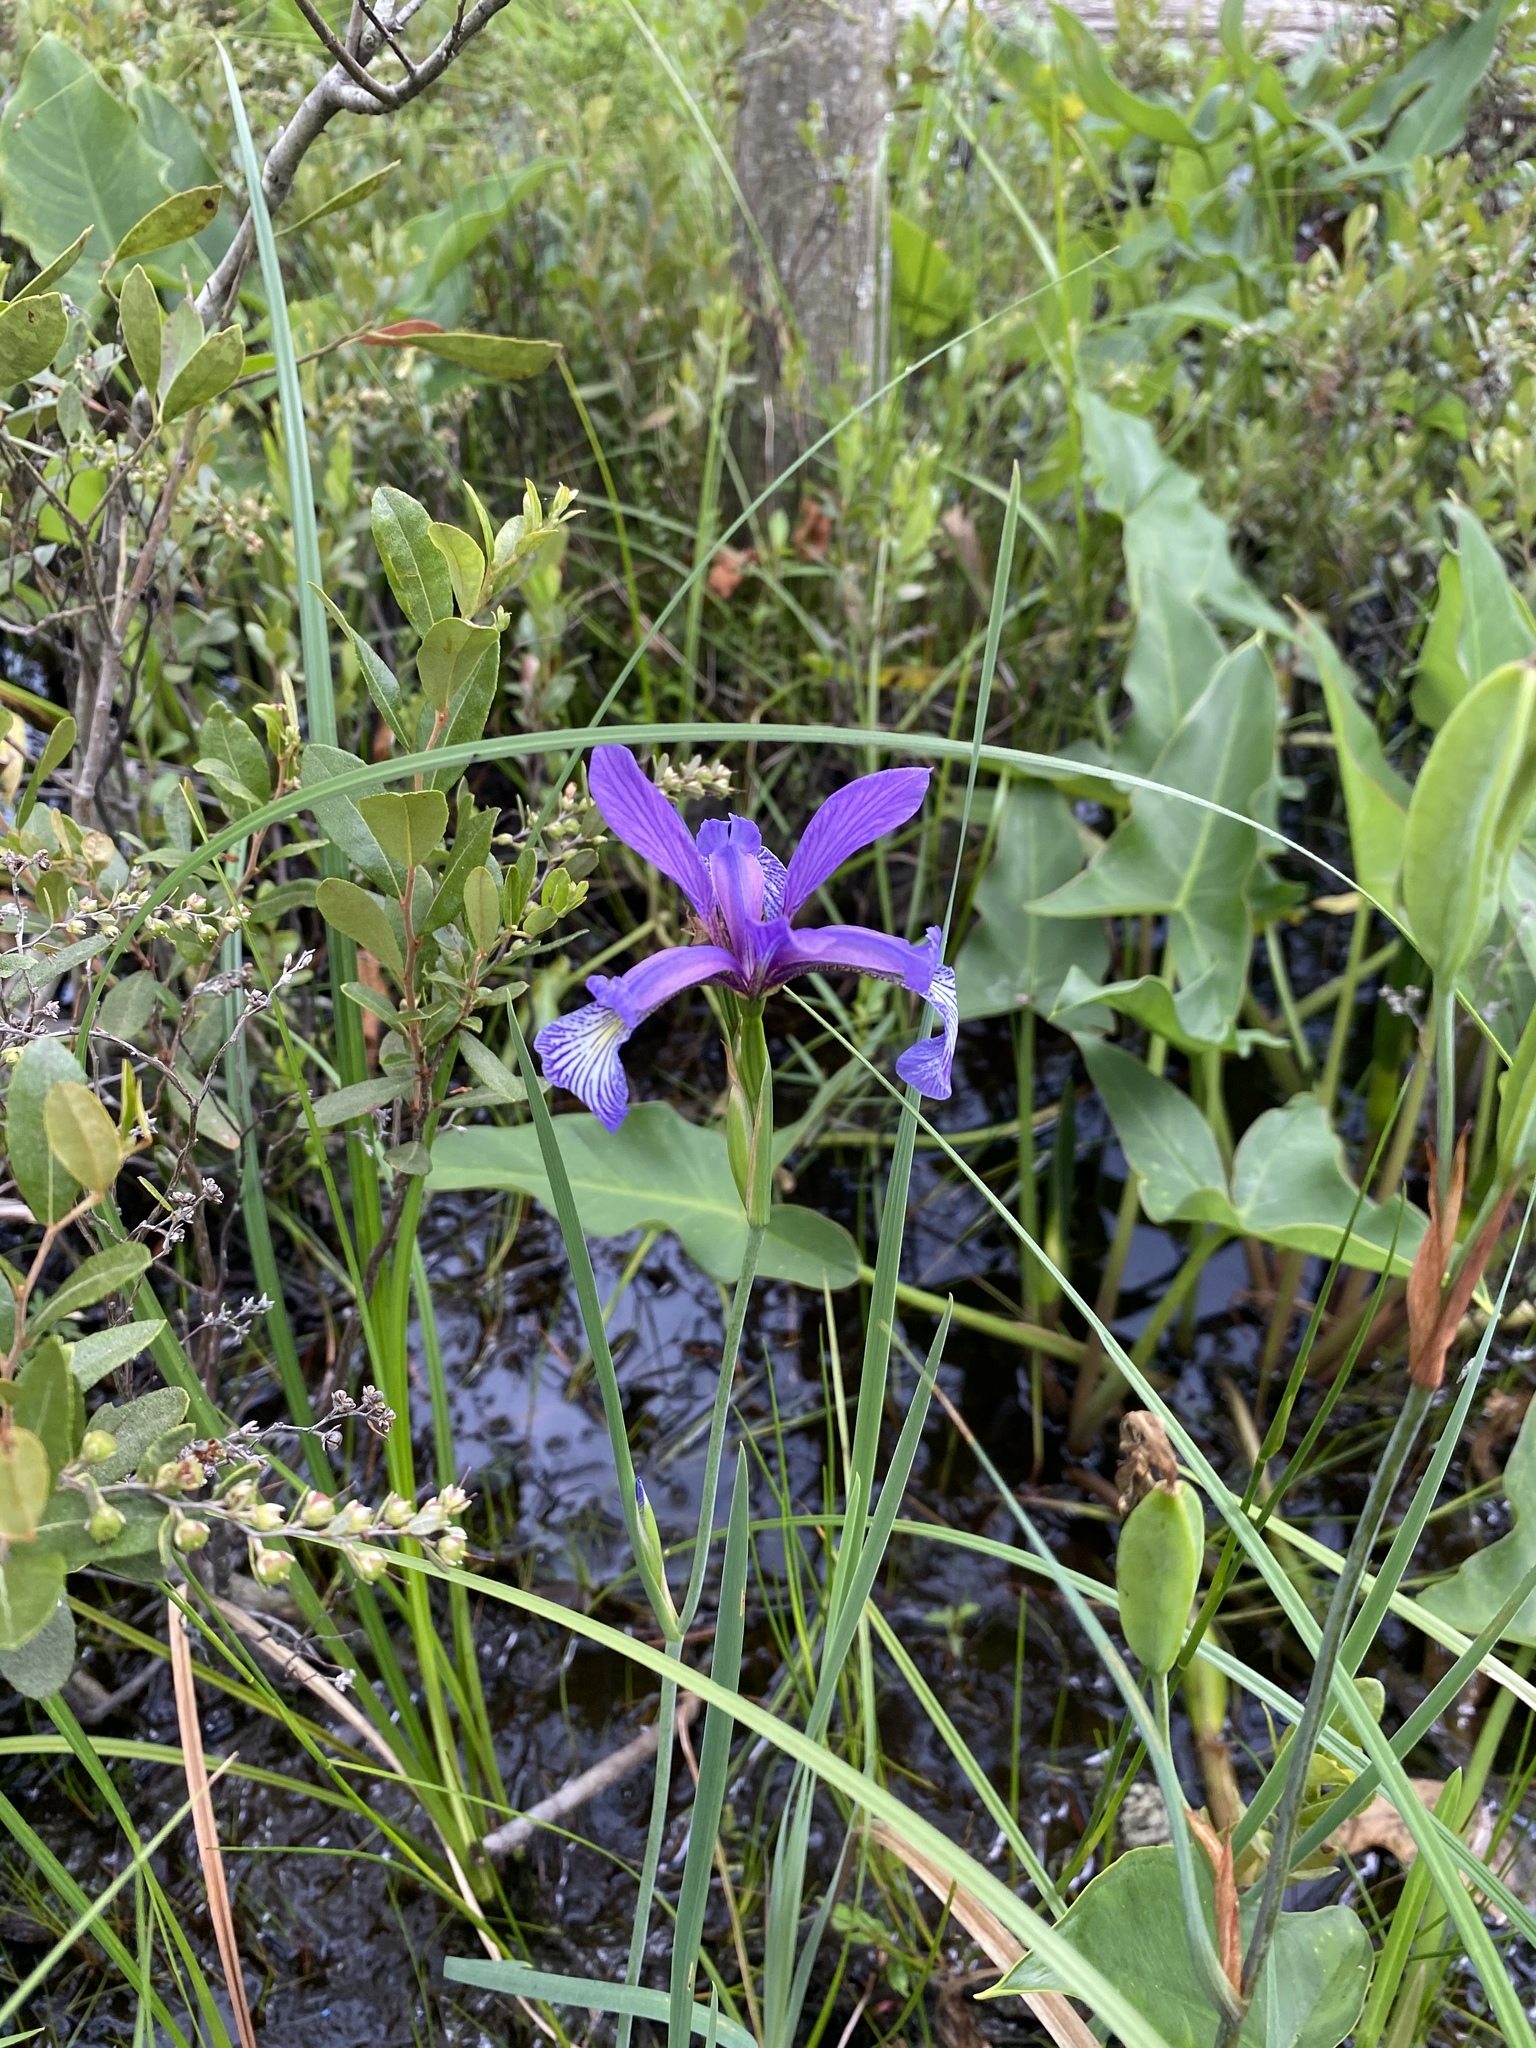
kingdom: Plantae
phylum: Tracheophyta
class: Liliopsida
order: Asparagales
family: Iridaceae
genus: Iris
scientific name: Iris prismatica
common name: Slender blue flag
